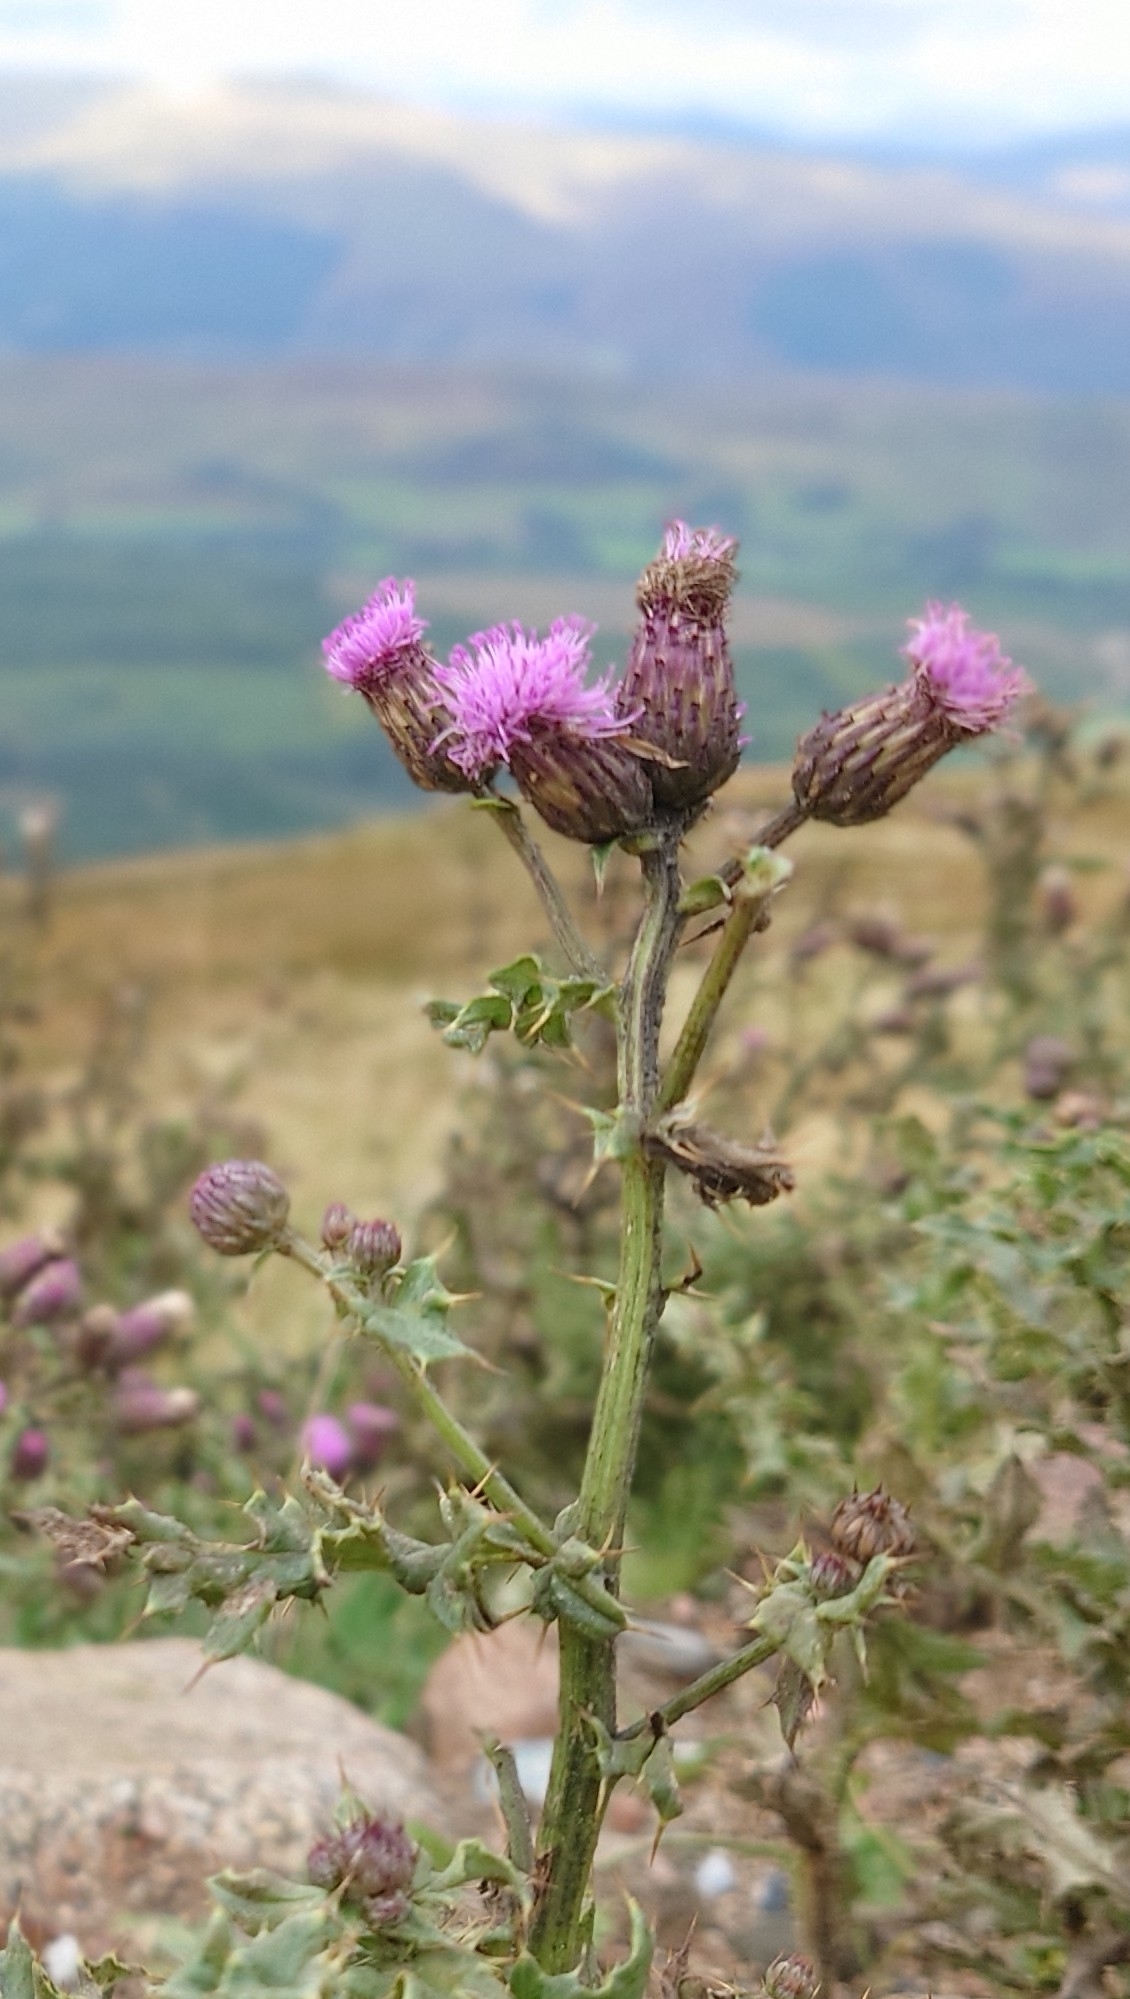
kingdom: Plantae
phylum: Tracheophyta
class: Magnoliopsida
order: Asterales
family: Asteraceae
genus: Cirsium
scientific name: Cirsium arvense
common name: Creeping thistle
